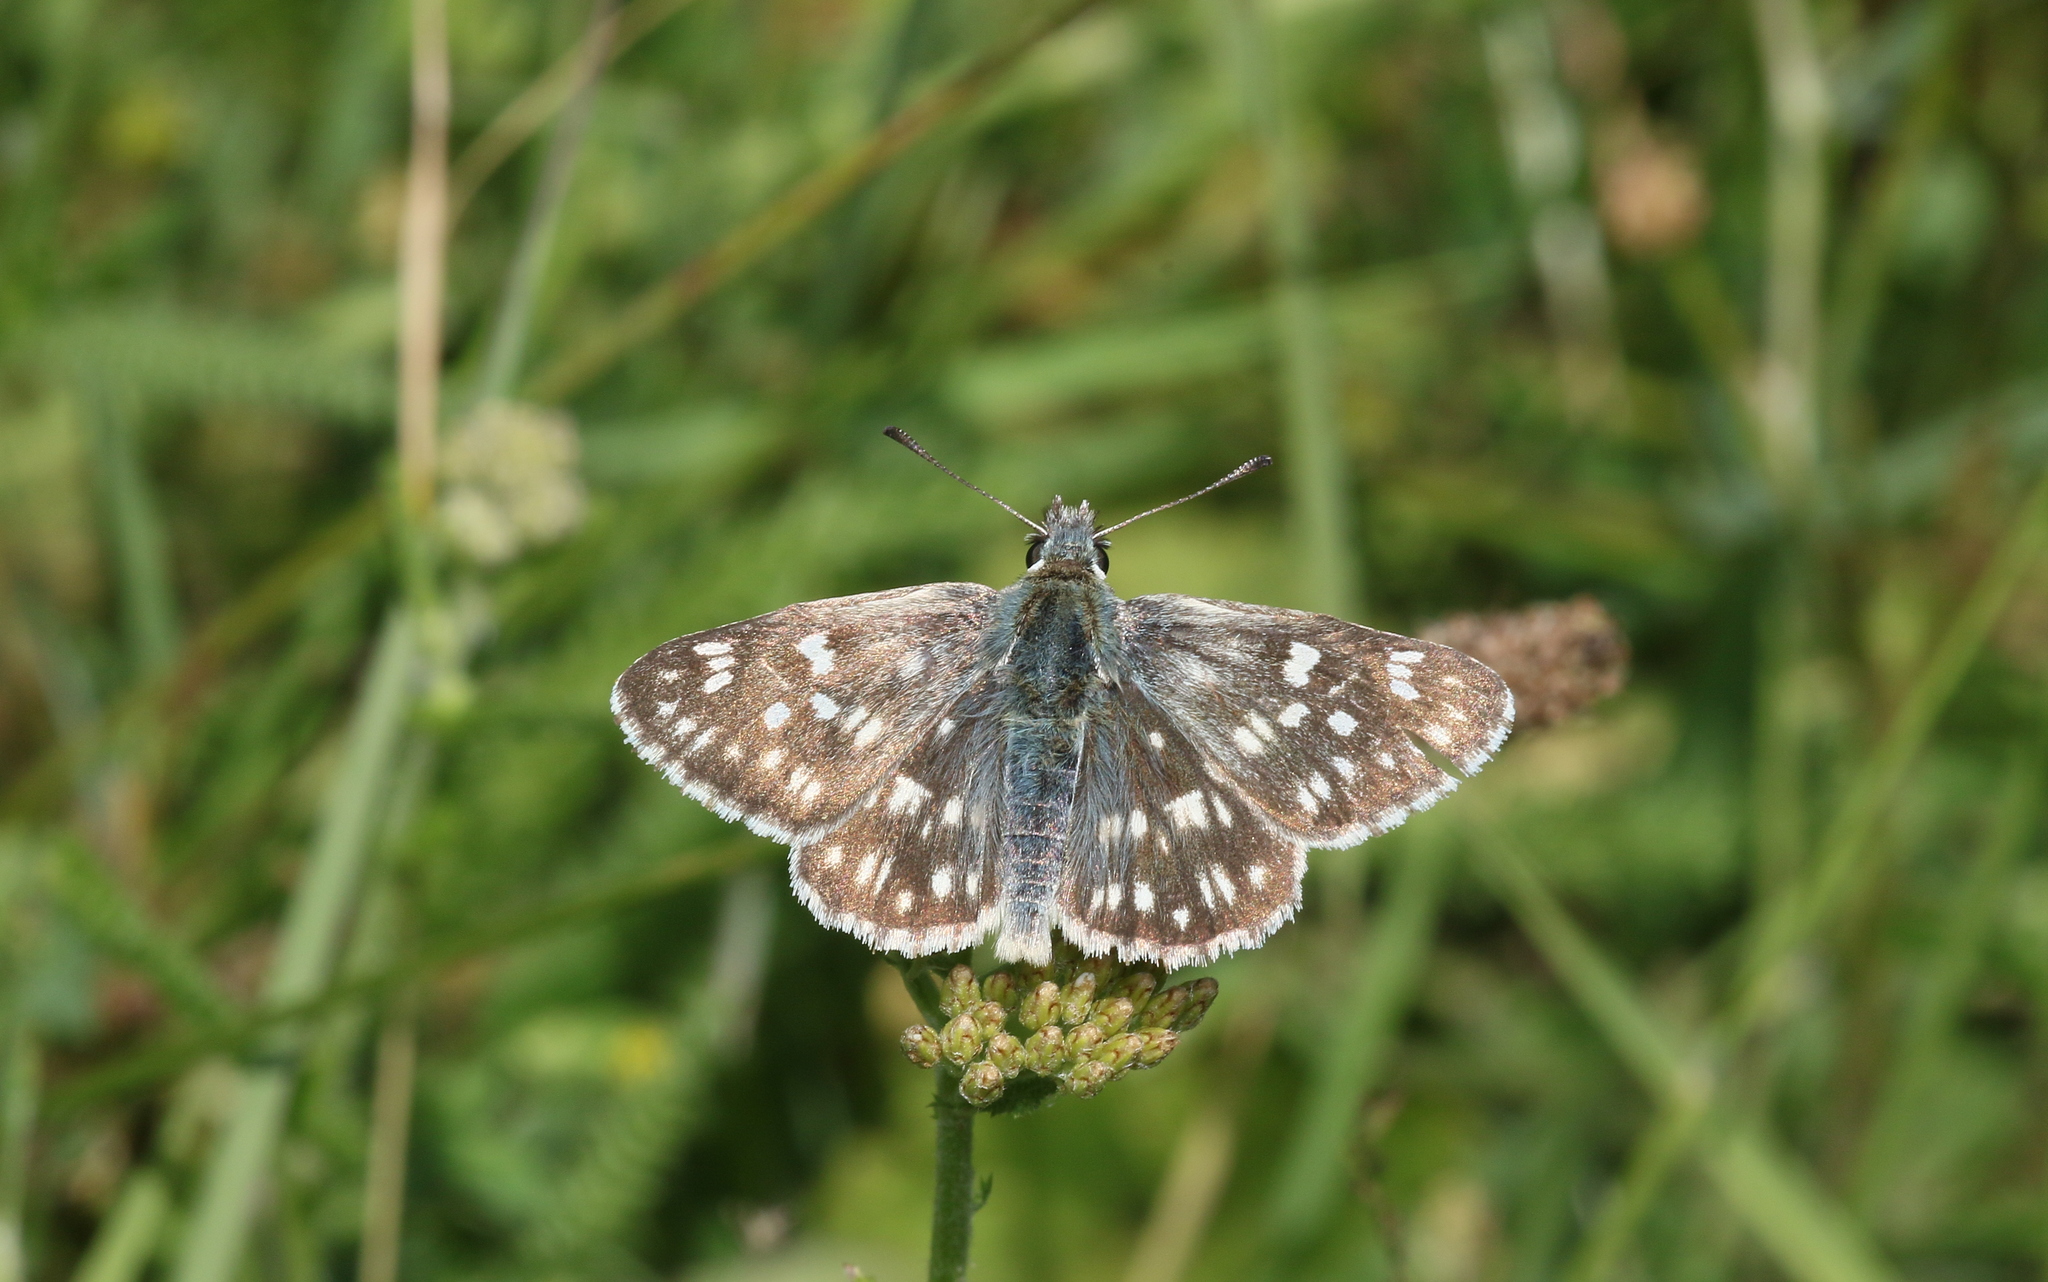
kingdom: Animalia
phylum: Arthropoda
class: Insecta
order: Lepidoptera
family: Hesperiidae
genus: Syrichtus
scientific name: Syrichtus tessellum
